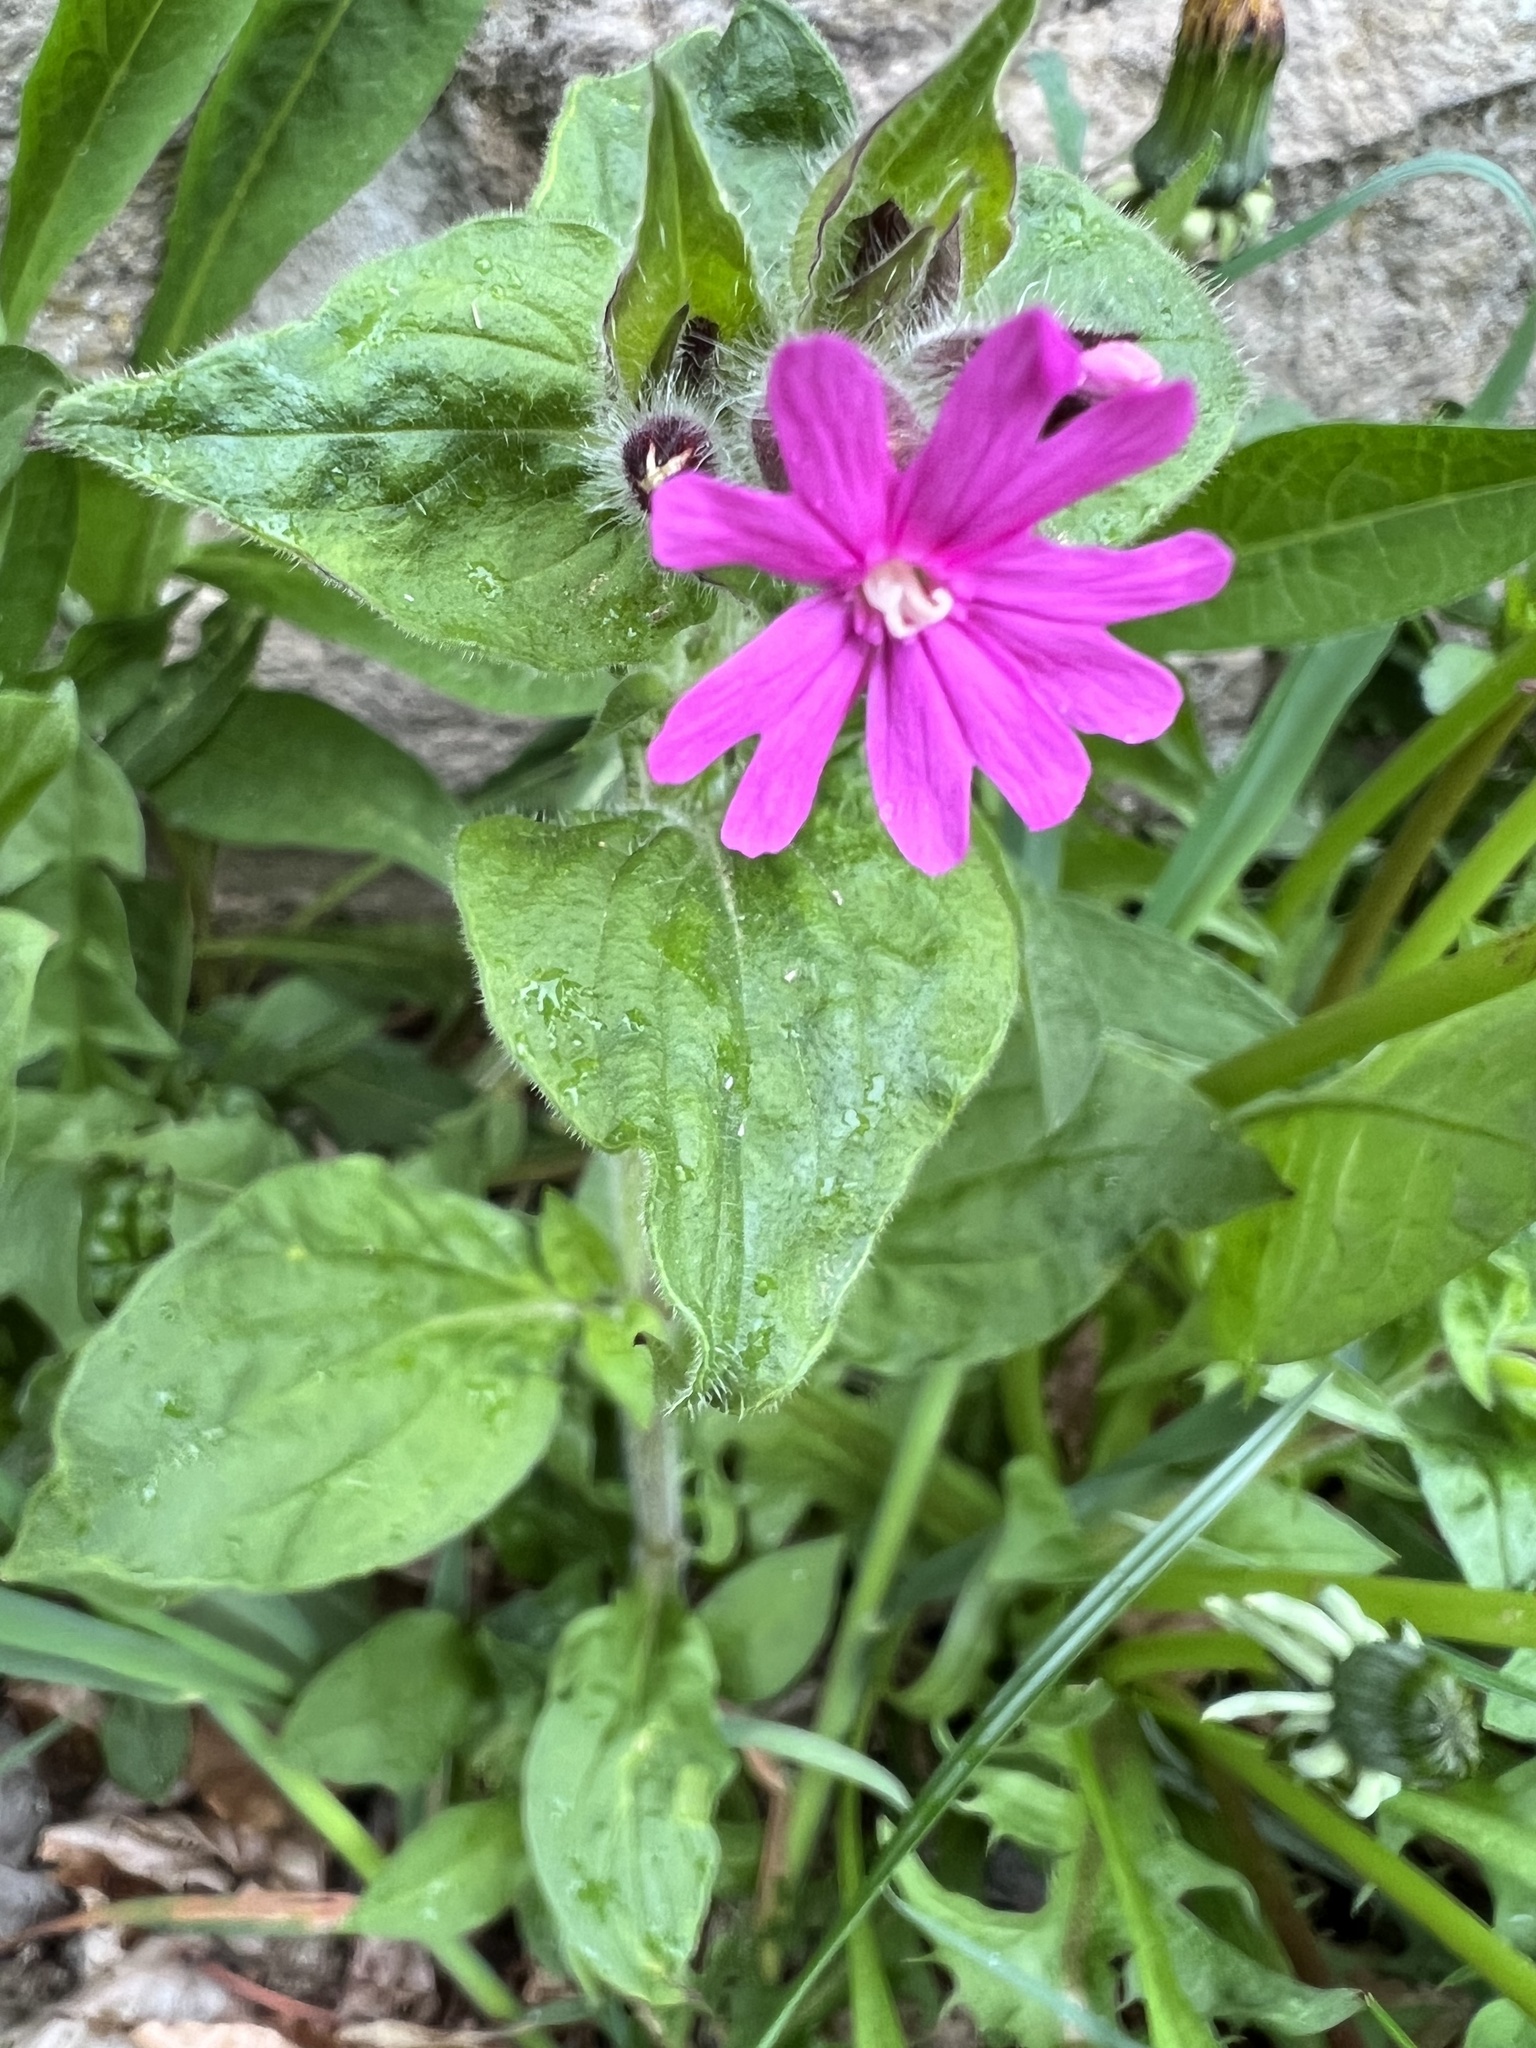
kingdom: Plantae
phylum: Tracheophyta
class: Magnoliopsida
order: Caryophyllales
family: Caryophyllaceae
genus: Silene
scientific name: Silene dioica
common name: Red campion
